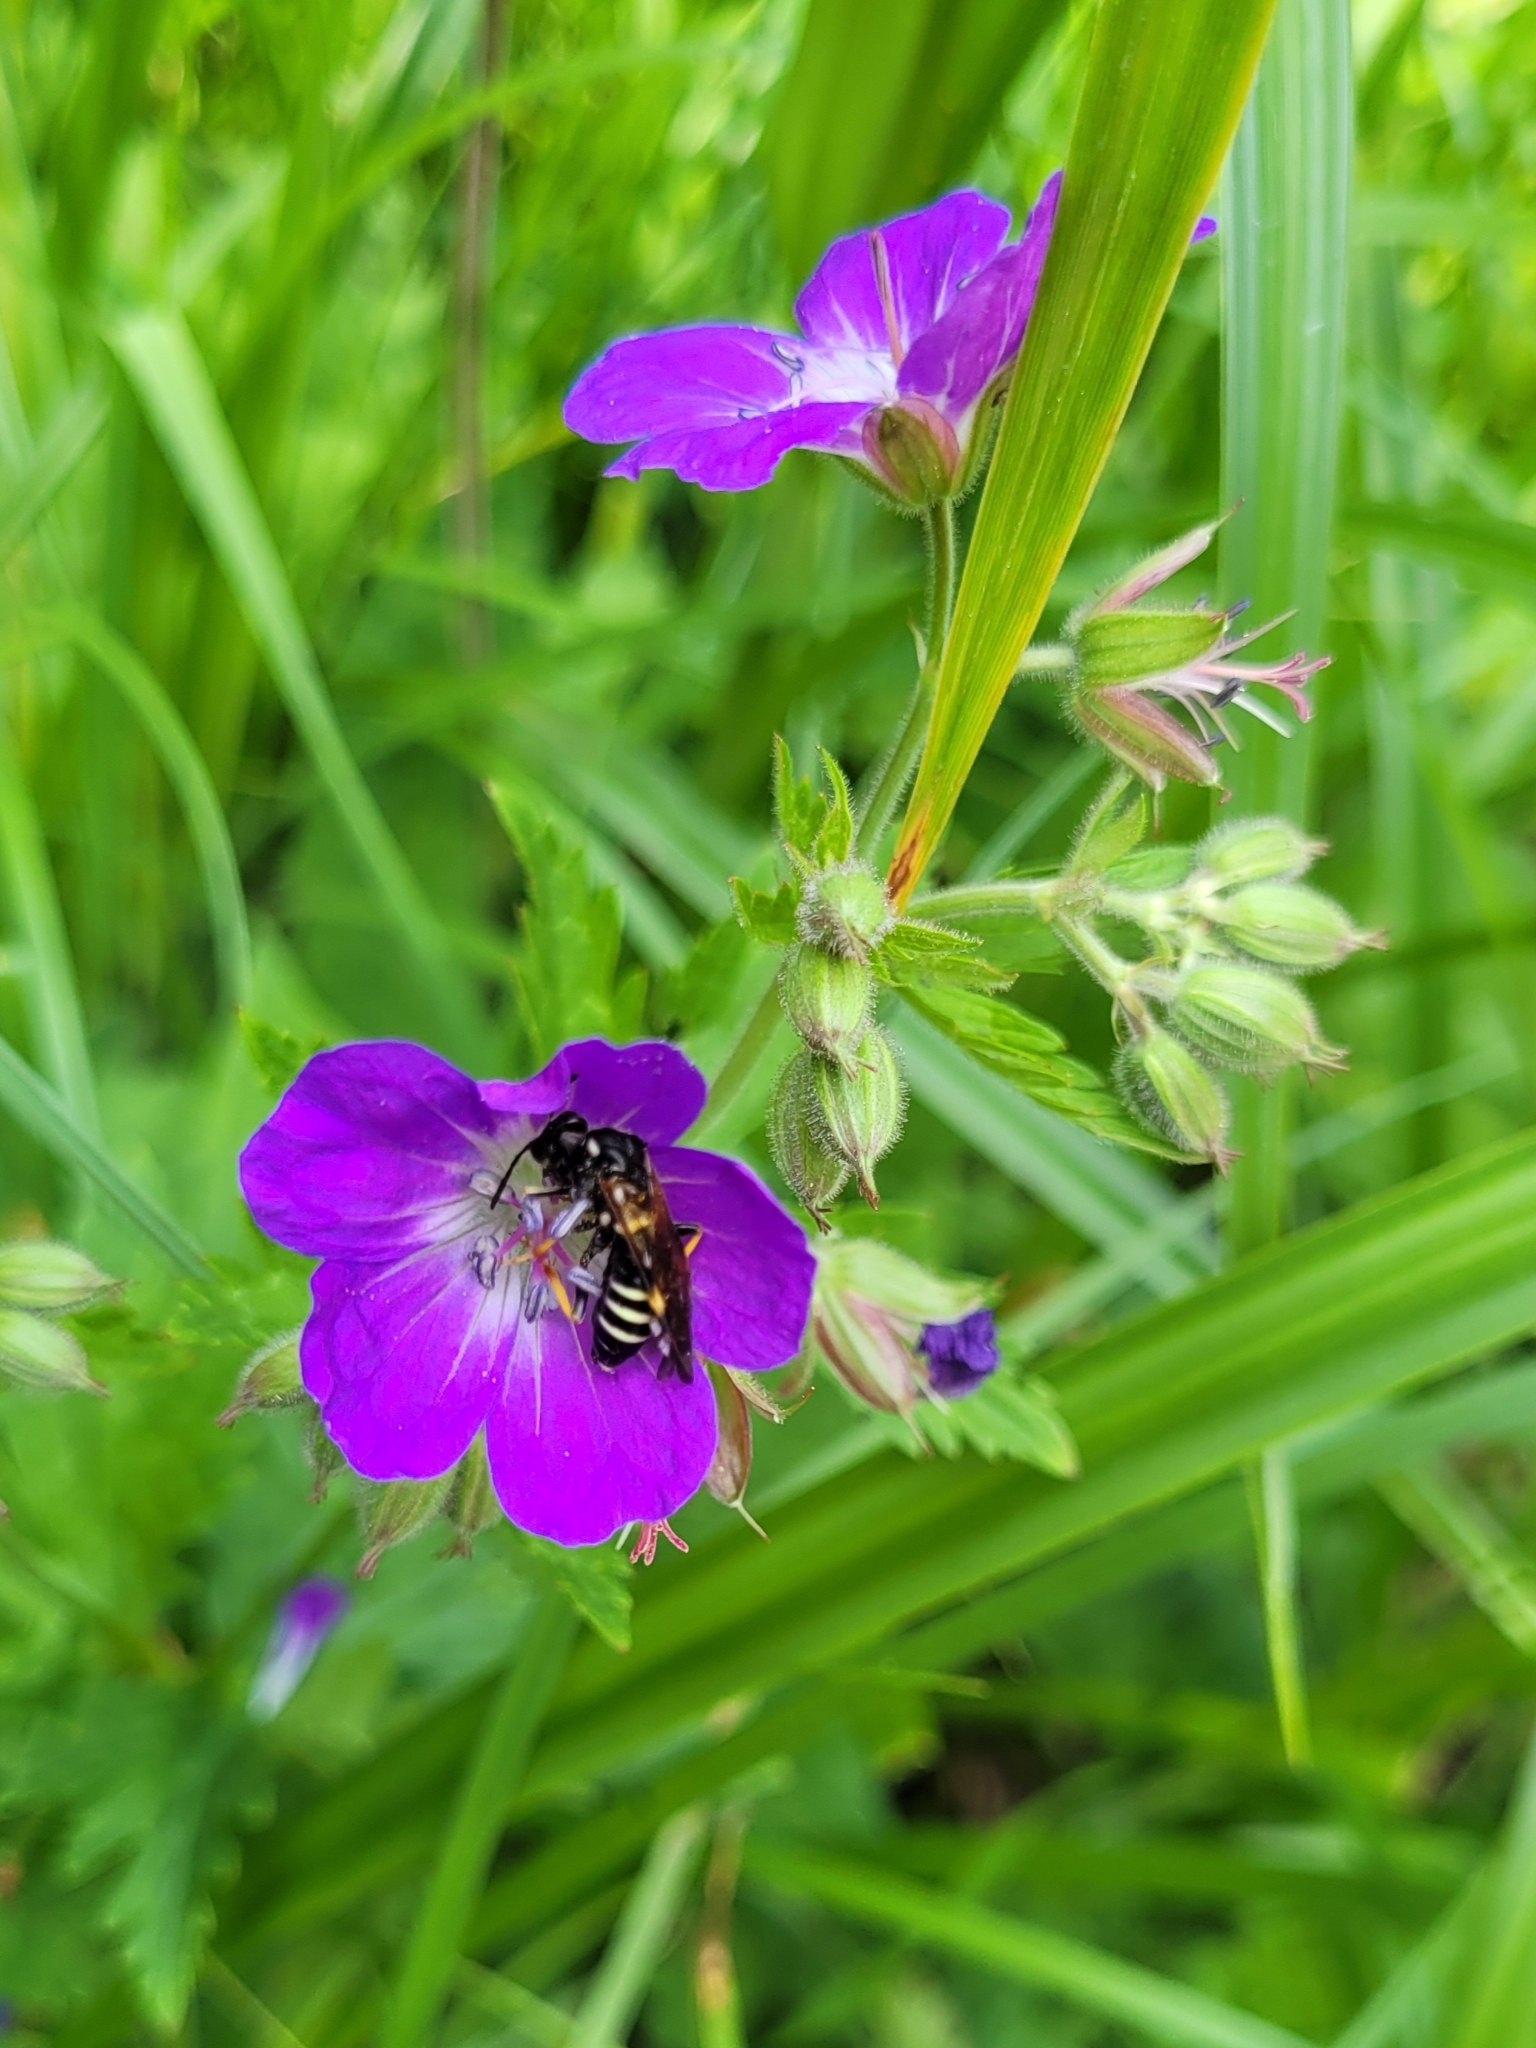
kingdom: Animalia
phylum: Arthropoda
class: Insecta
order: Hymenoptera
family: Tenthredinidae
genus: Tenthredo
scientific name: Tenthredo koehleri
